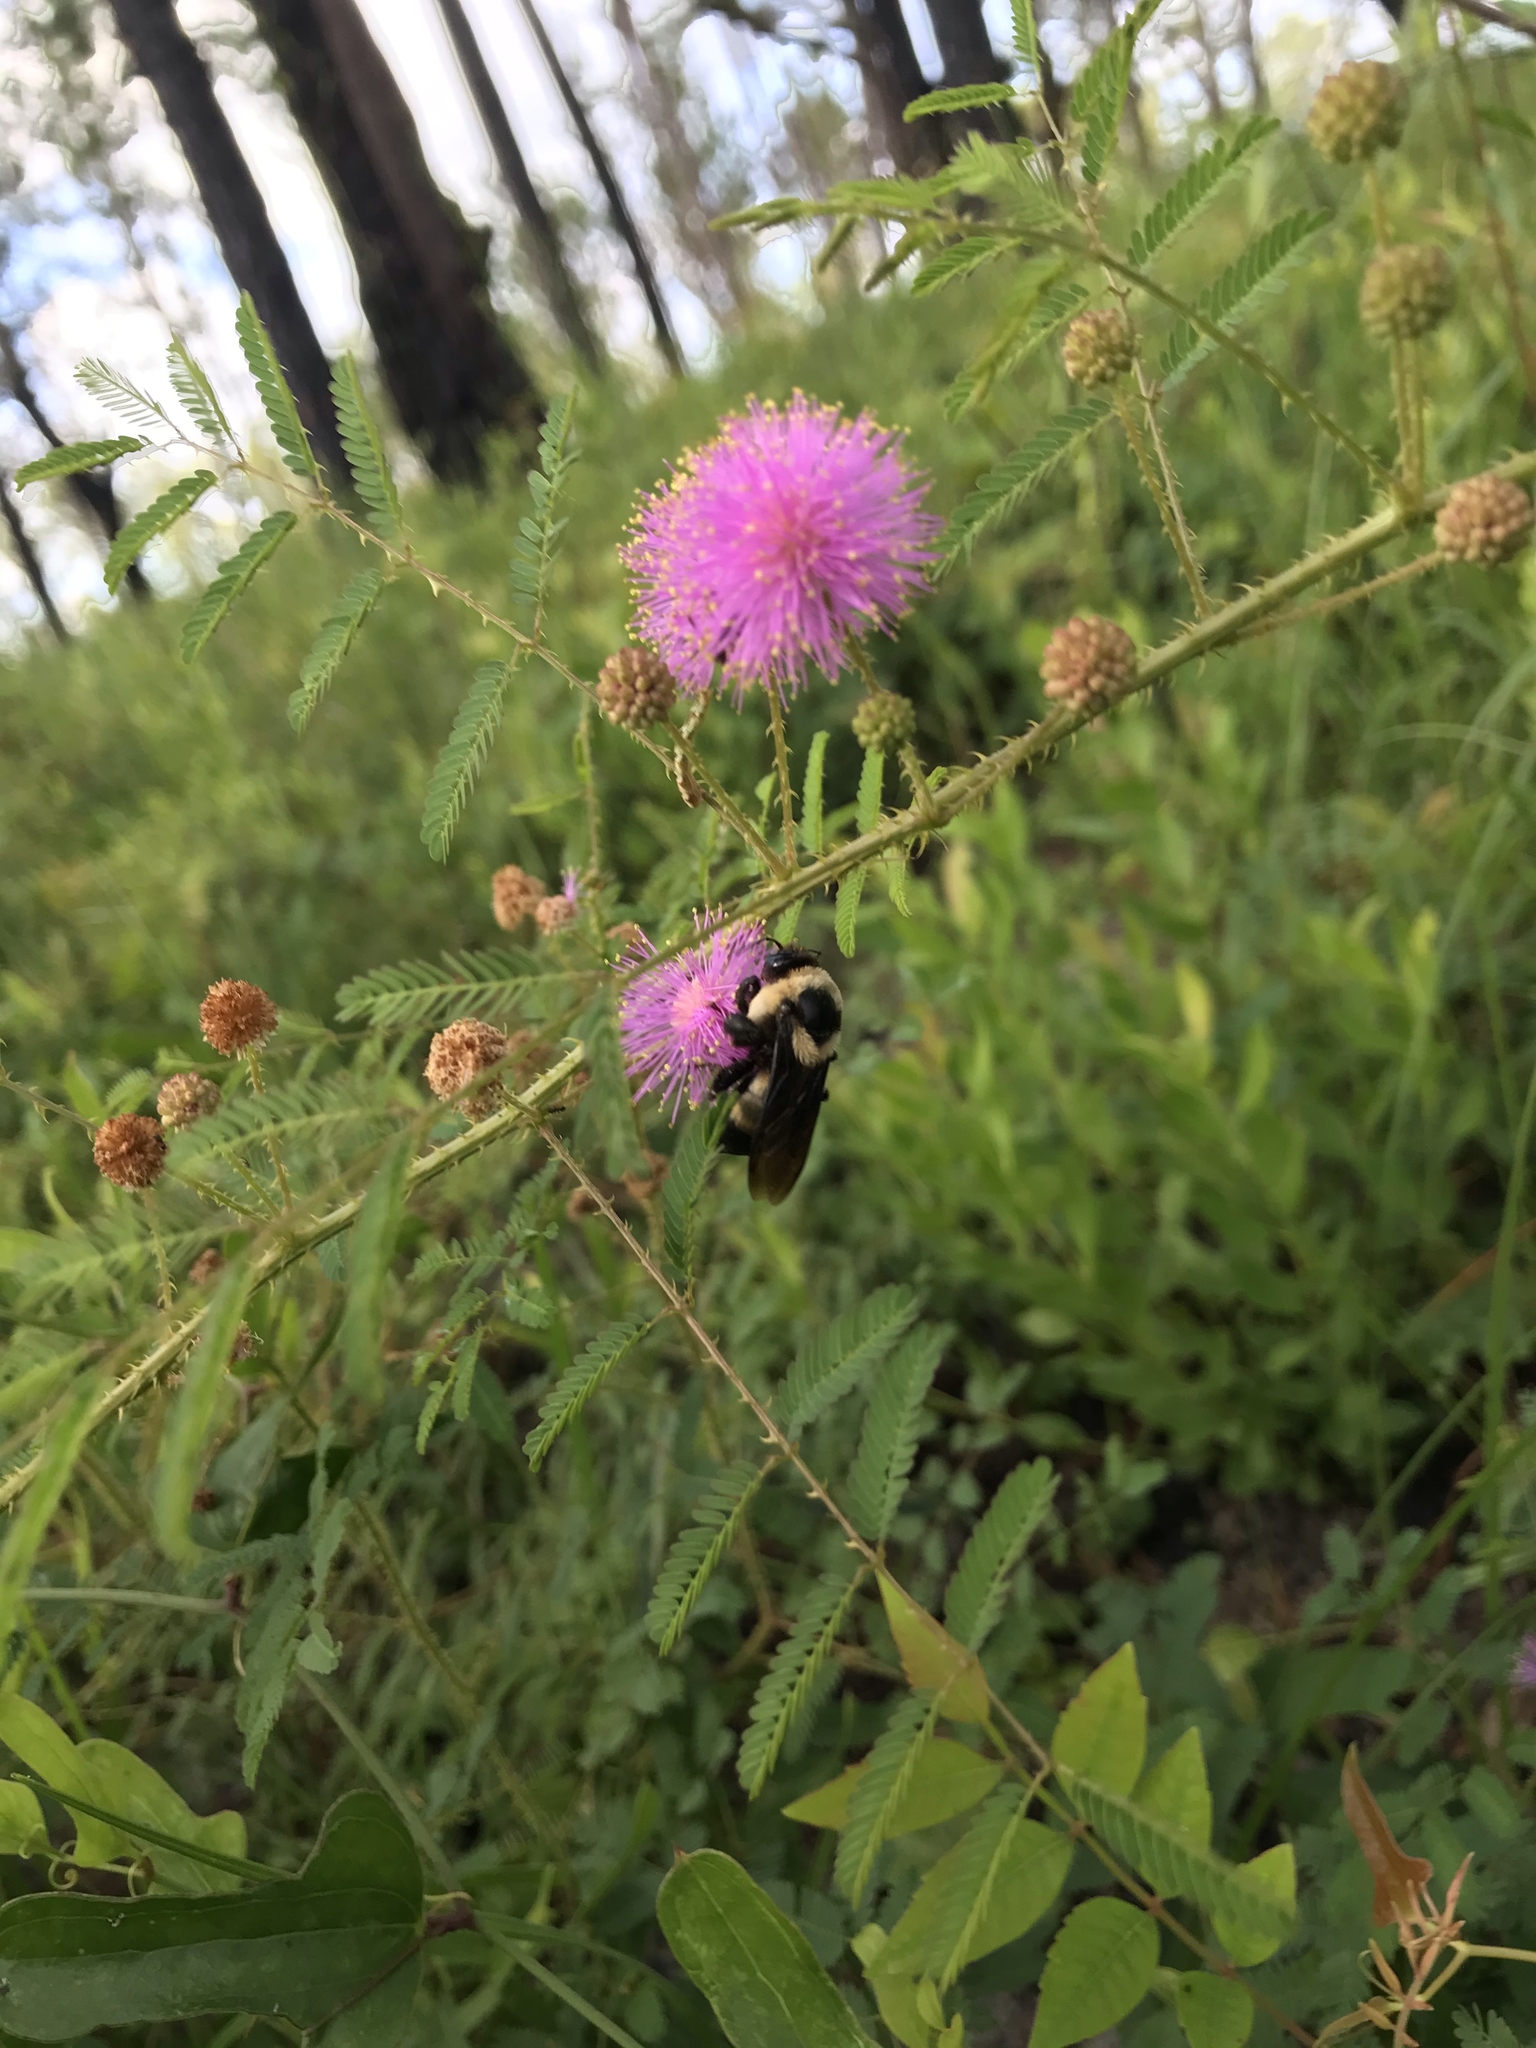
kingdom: Animalia
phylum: Arthropoda
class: Insecta
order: Hymenoptera
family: Apidae
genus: Bombus
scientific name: Bombus fraternus
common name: Southern plains bumble bee
